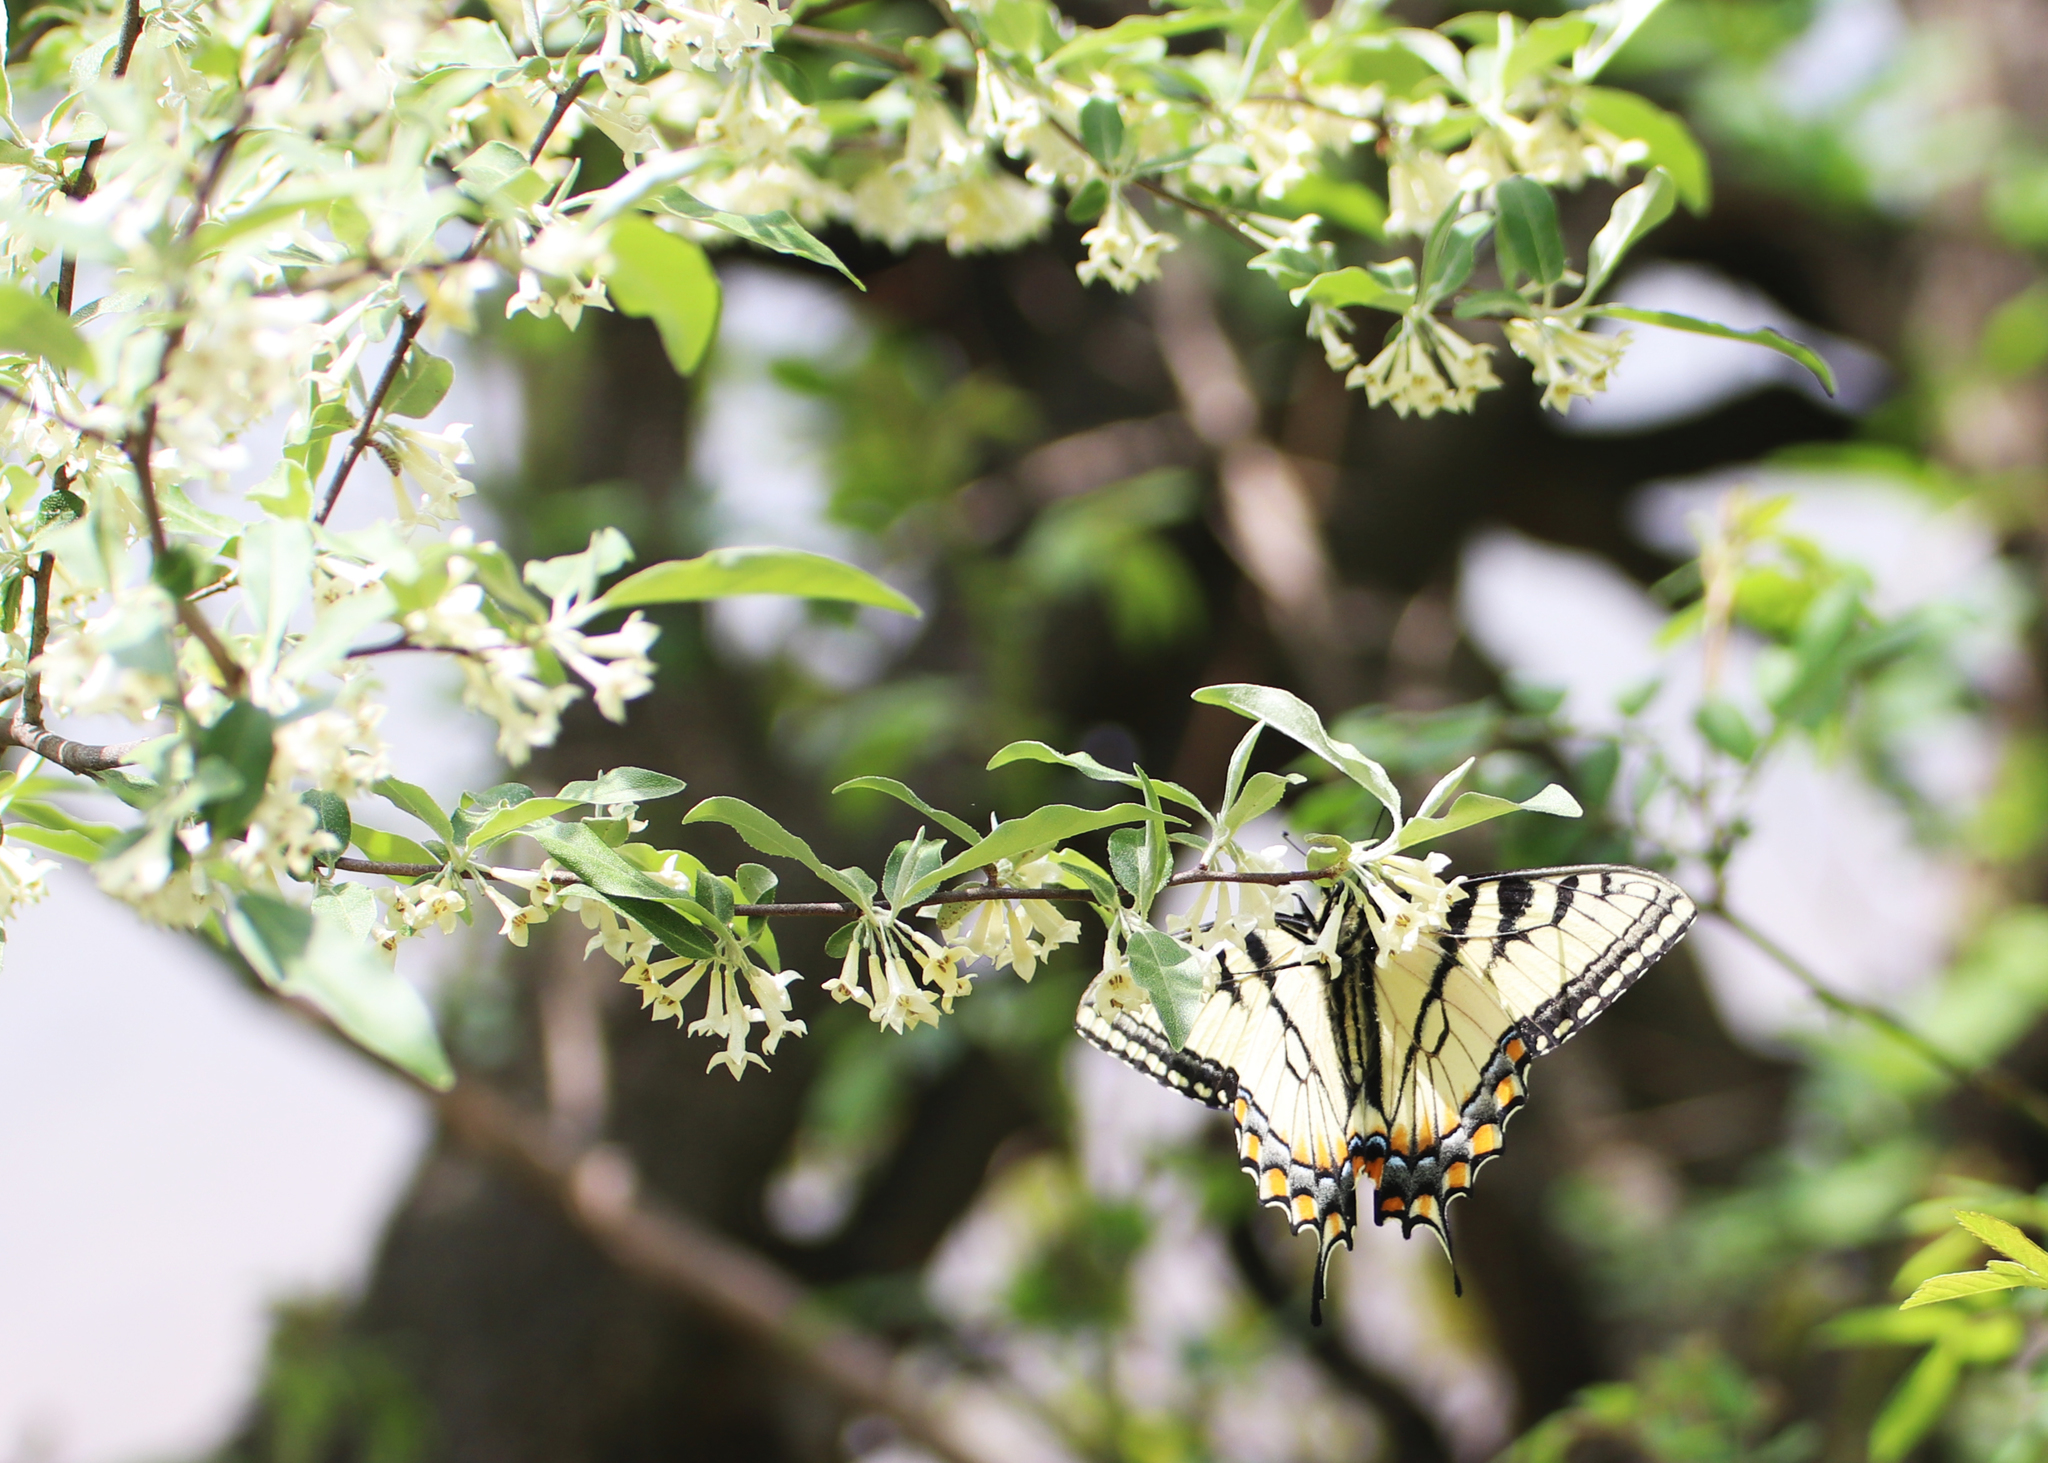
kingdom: Animalia
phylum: Arthropoda
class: Insecta
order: Lepidoptera
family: Papilionidae
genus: Papilio
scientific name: Papilio glaucus
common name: Tiger swallowtail
